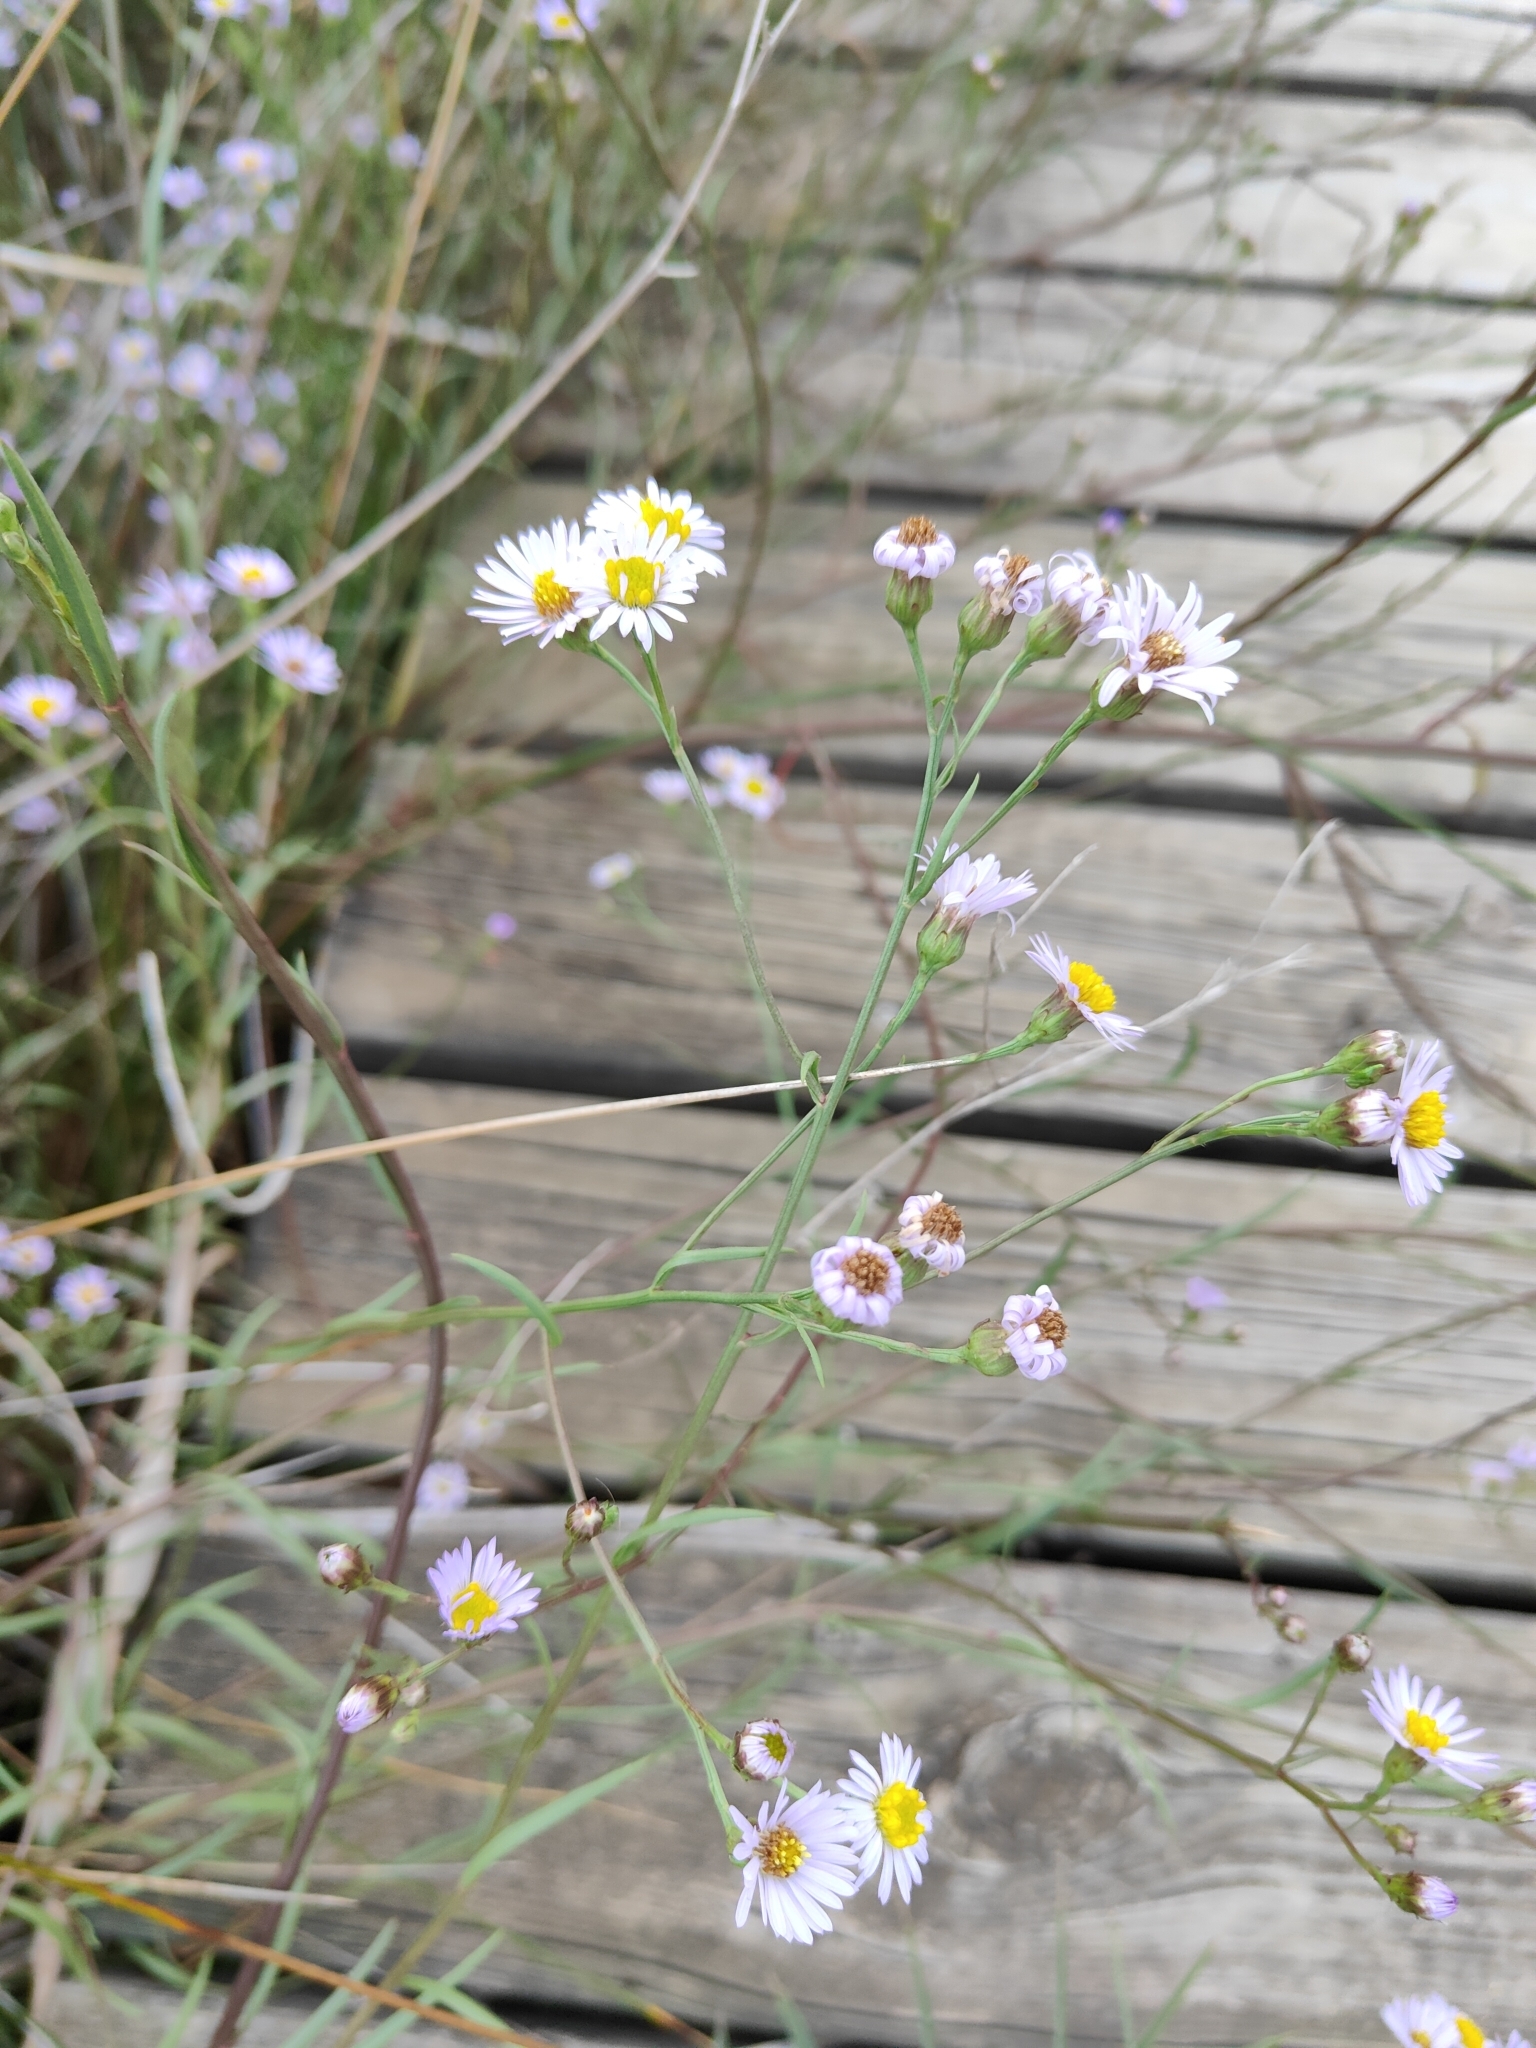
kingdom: Plantae
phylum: Tracheophyta
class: Magnoliopsida
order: Asterales
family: Asteraceae
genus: Tripolium
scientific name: Tripolium pannonicum
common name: Sea aster
